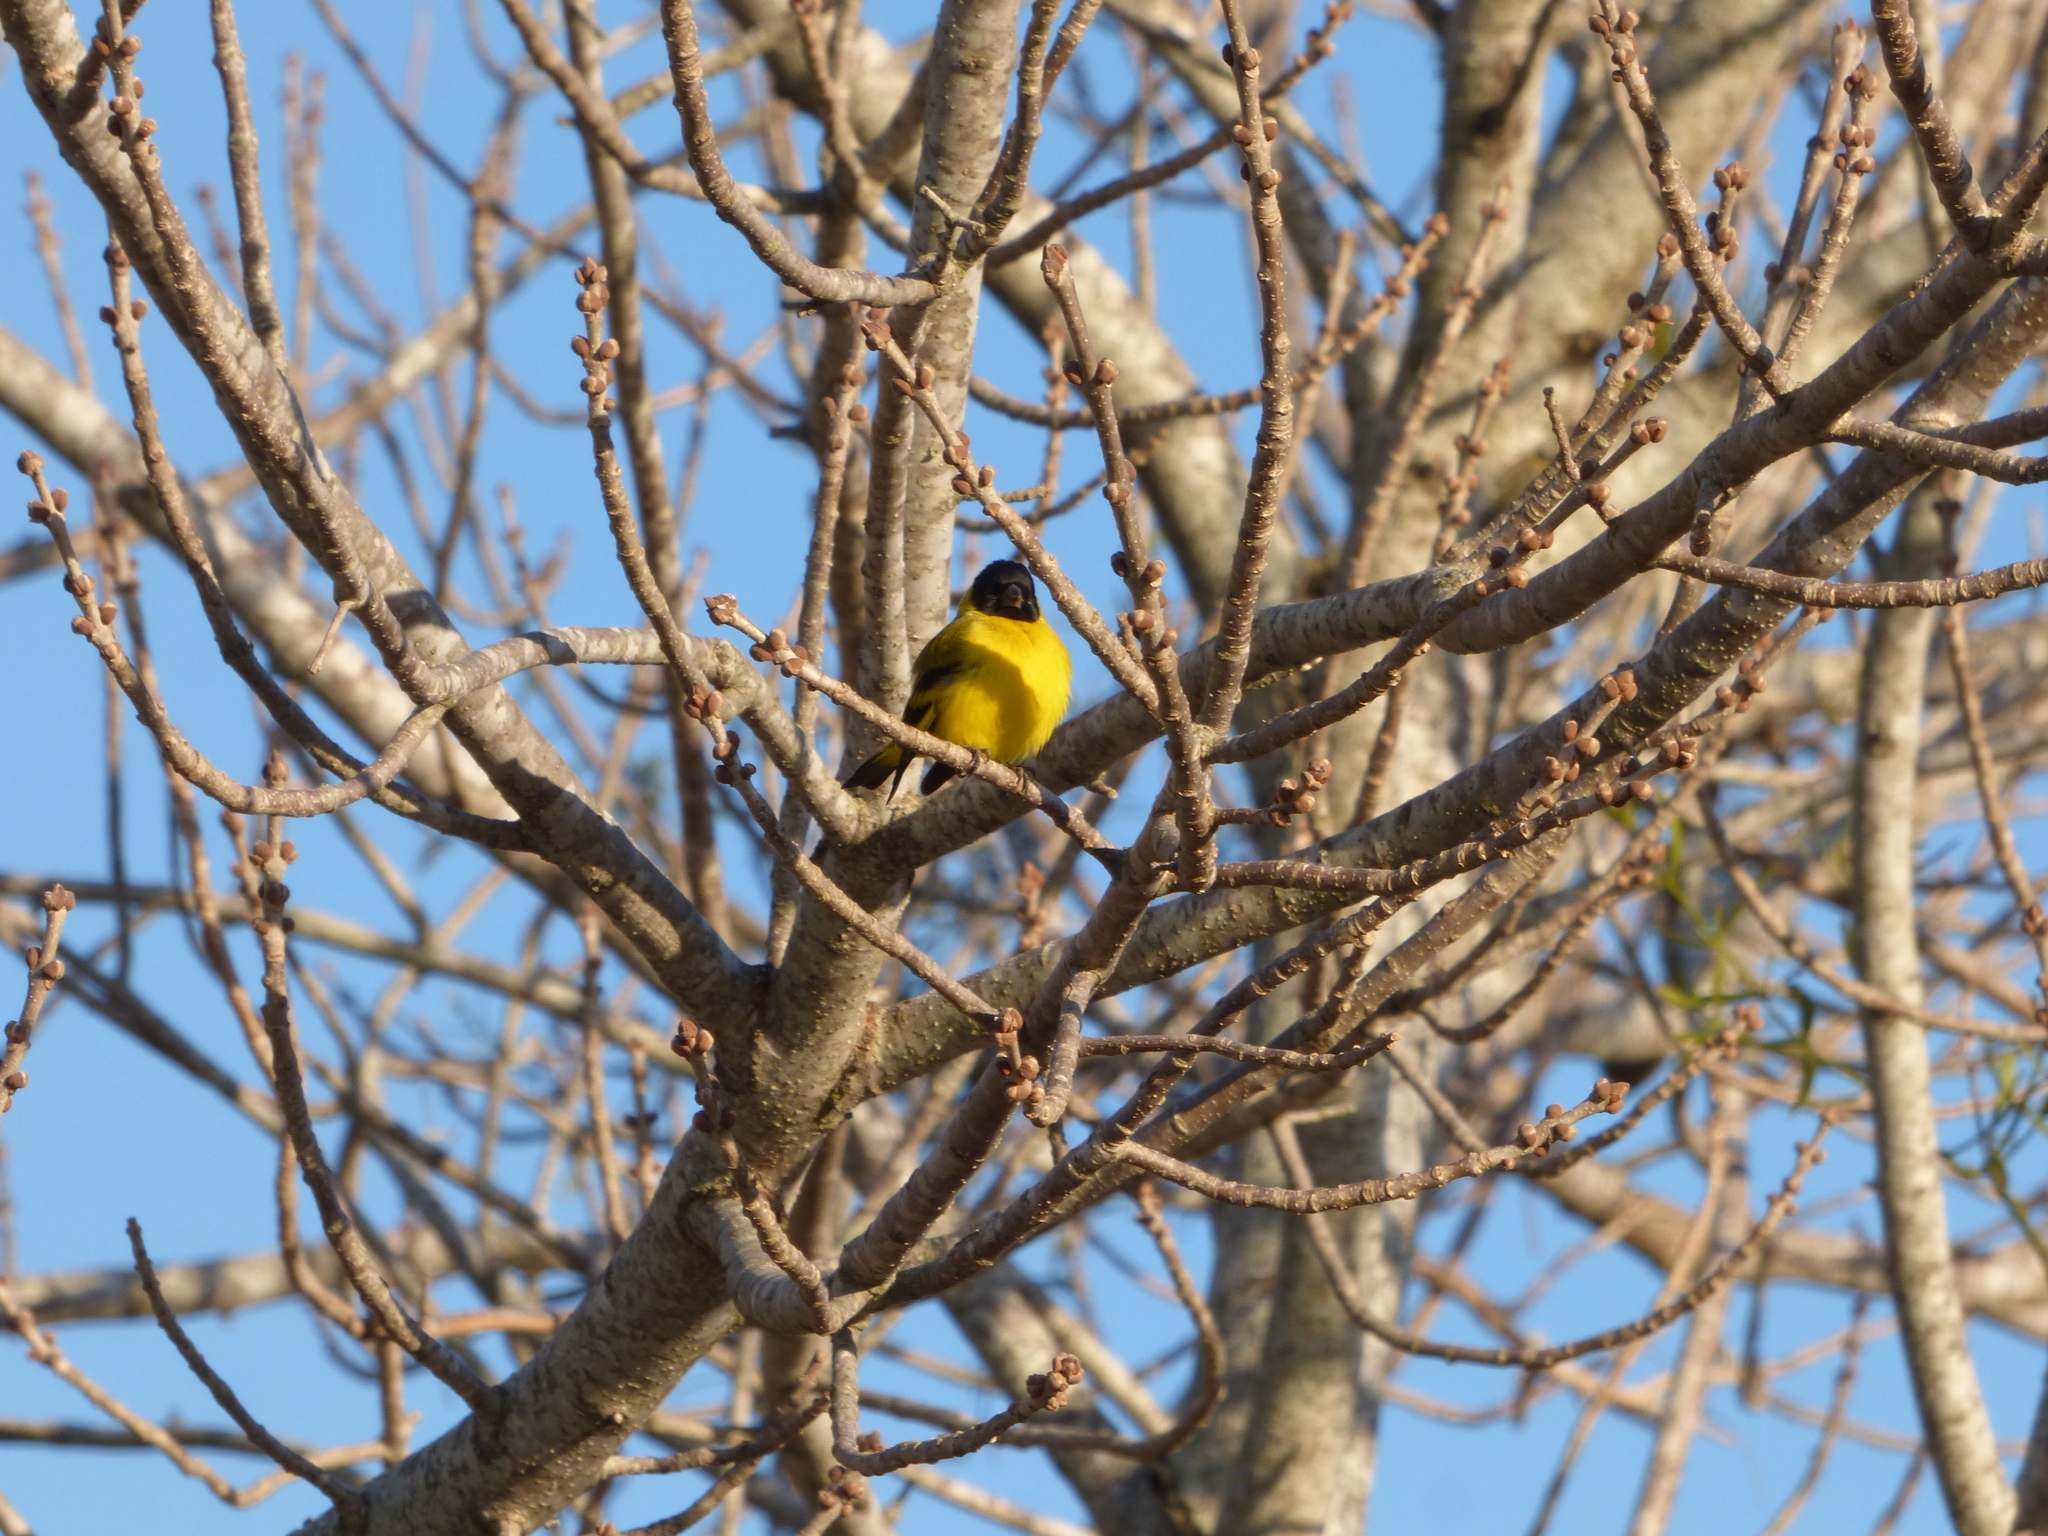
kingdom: Animalia
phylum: Chordata
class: Aves
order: Passeriformes
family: Fringillidae
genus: Spinus
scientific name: Spinus magellanicus
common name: Hooded siskin
